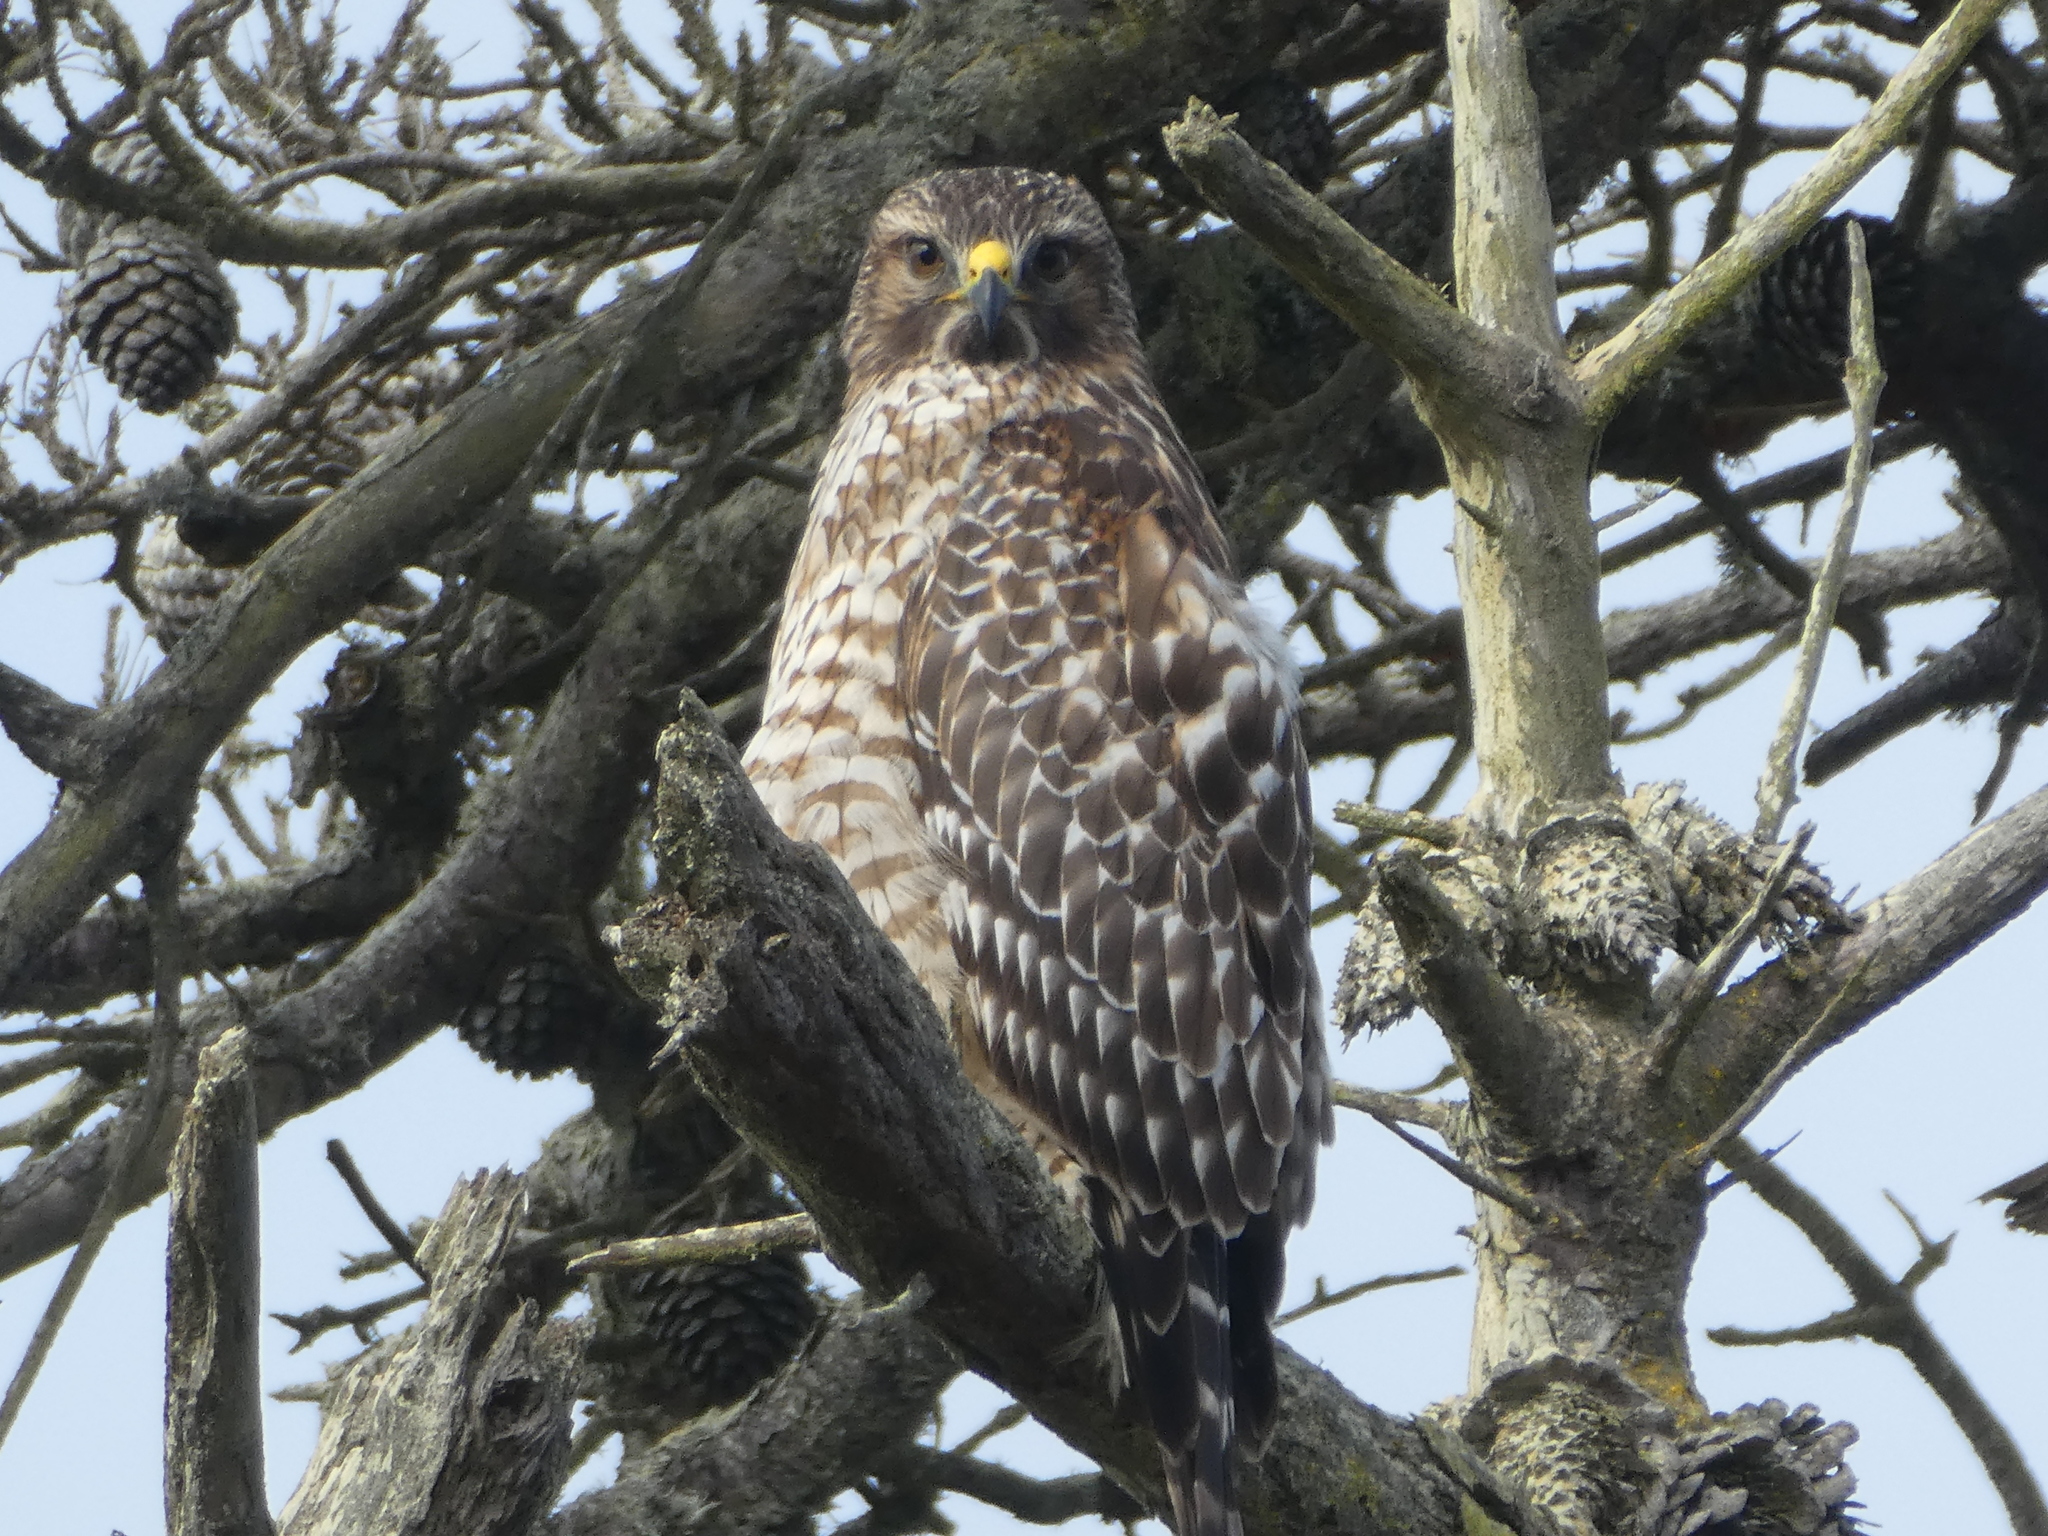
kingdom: Animalia
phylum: Chordata
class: Aves
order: Accipitriformes
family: Accipitridae
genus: Buteo
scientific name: Buteo lineatus
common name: Red-shouldered hawk
